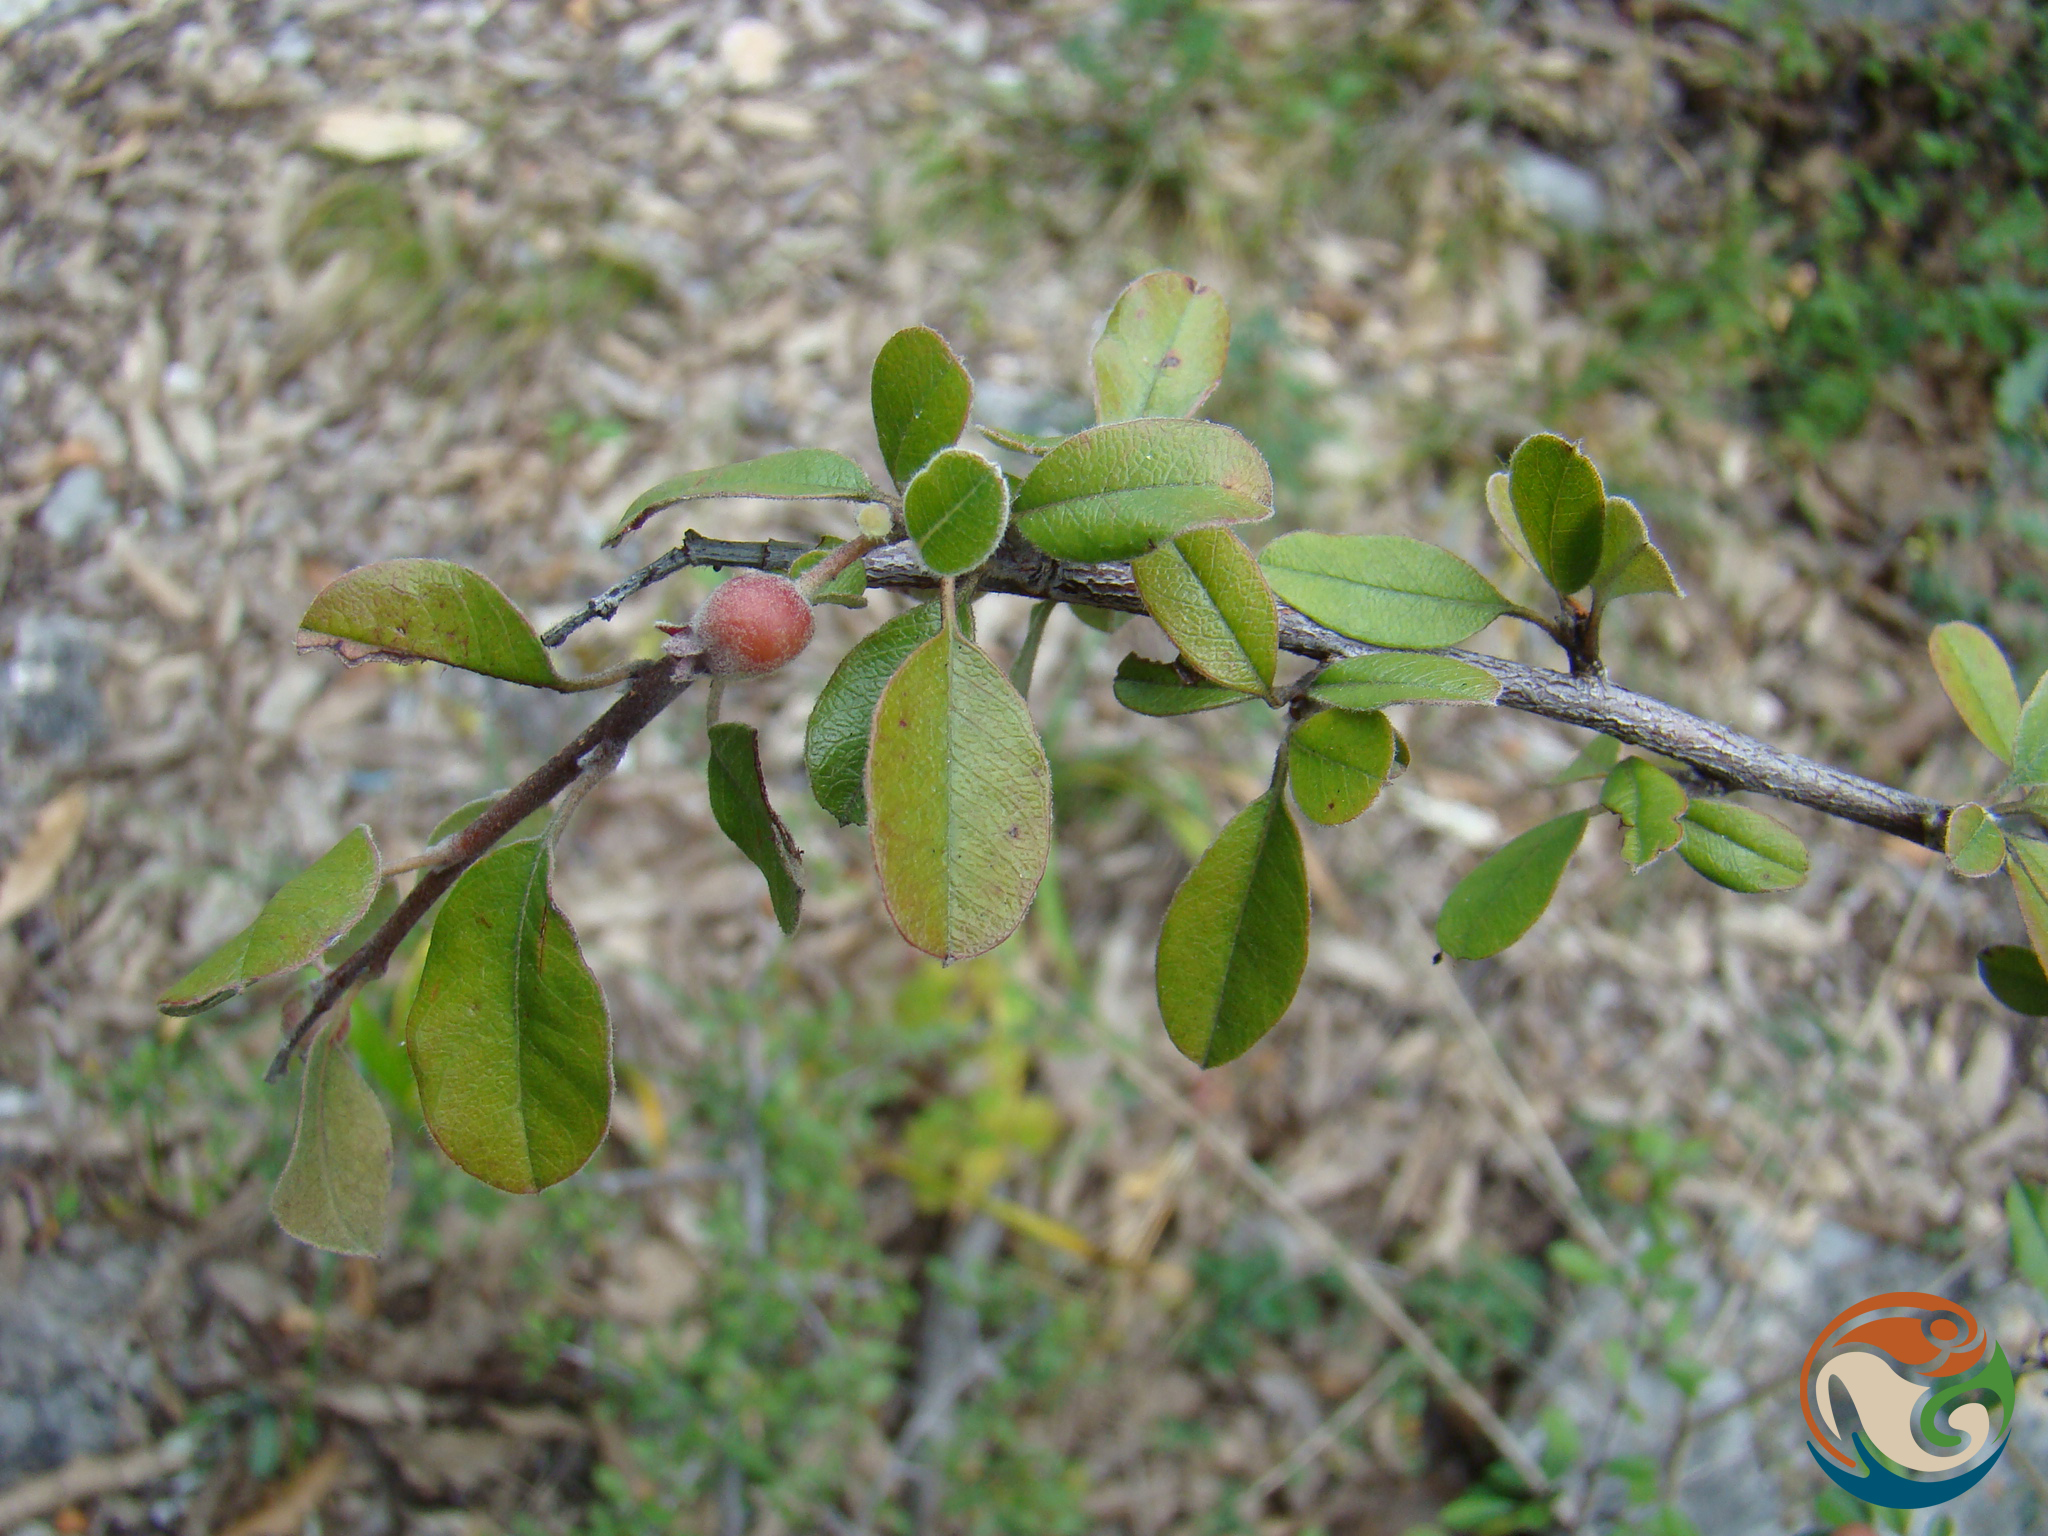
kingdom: Plantae
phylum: Tracheophyta
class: Magnoliopsida
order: Rosales
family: Rosaceae
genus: Malacomeles
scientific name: Malacomeles denticulata
